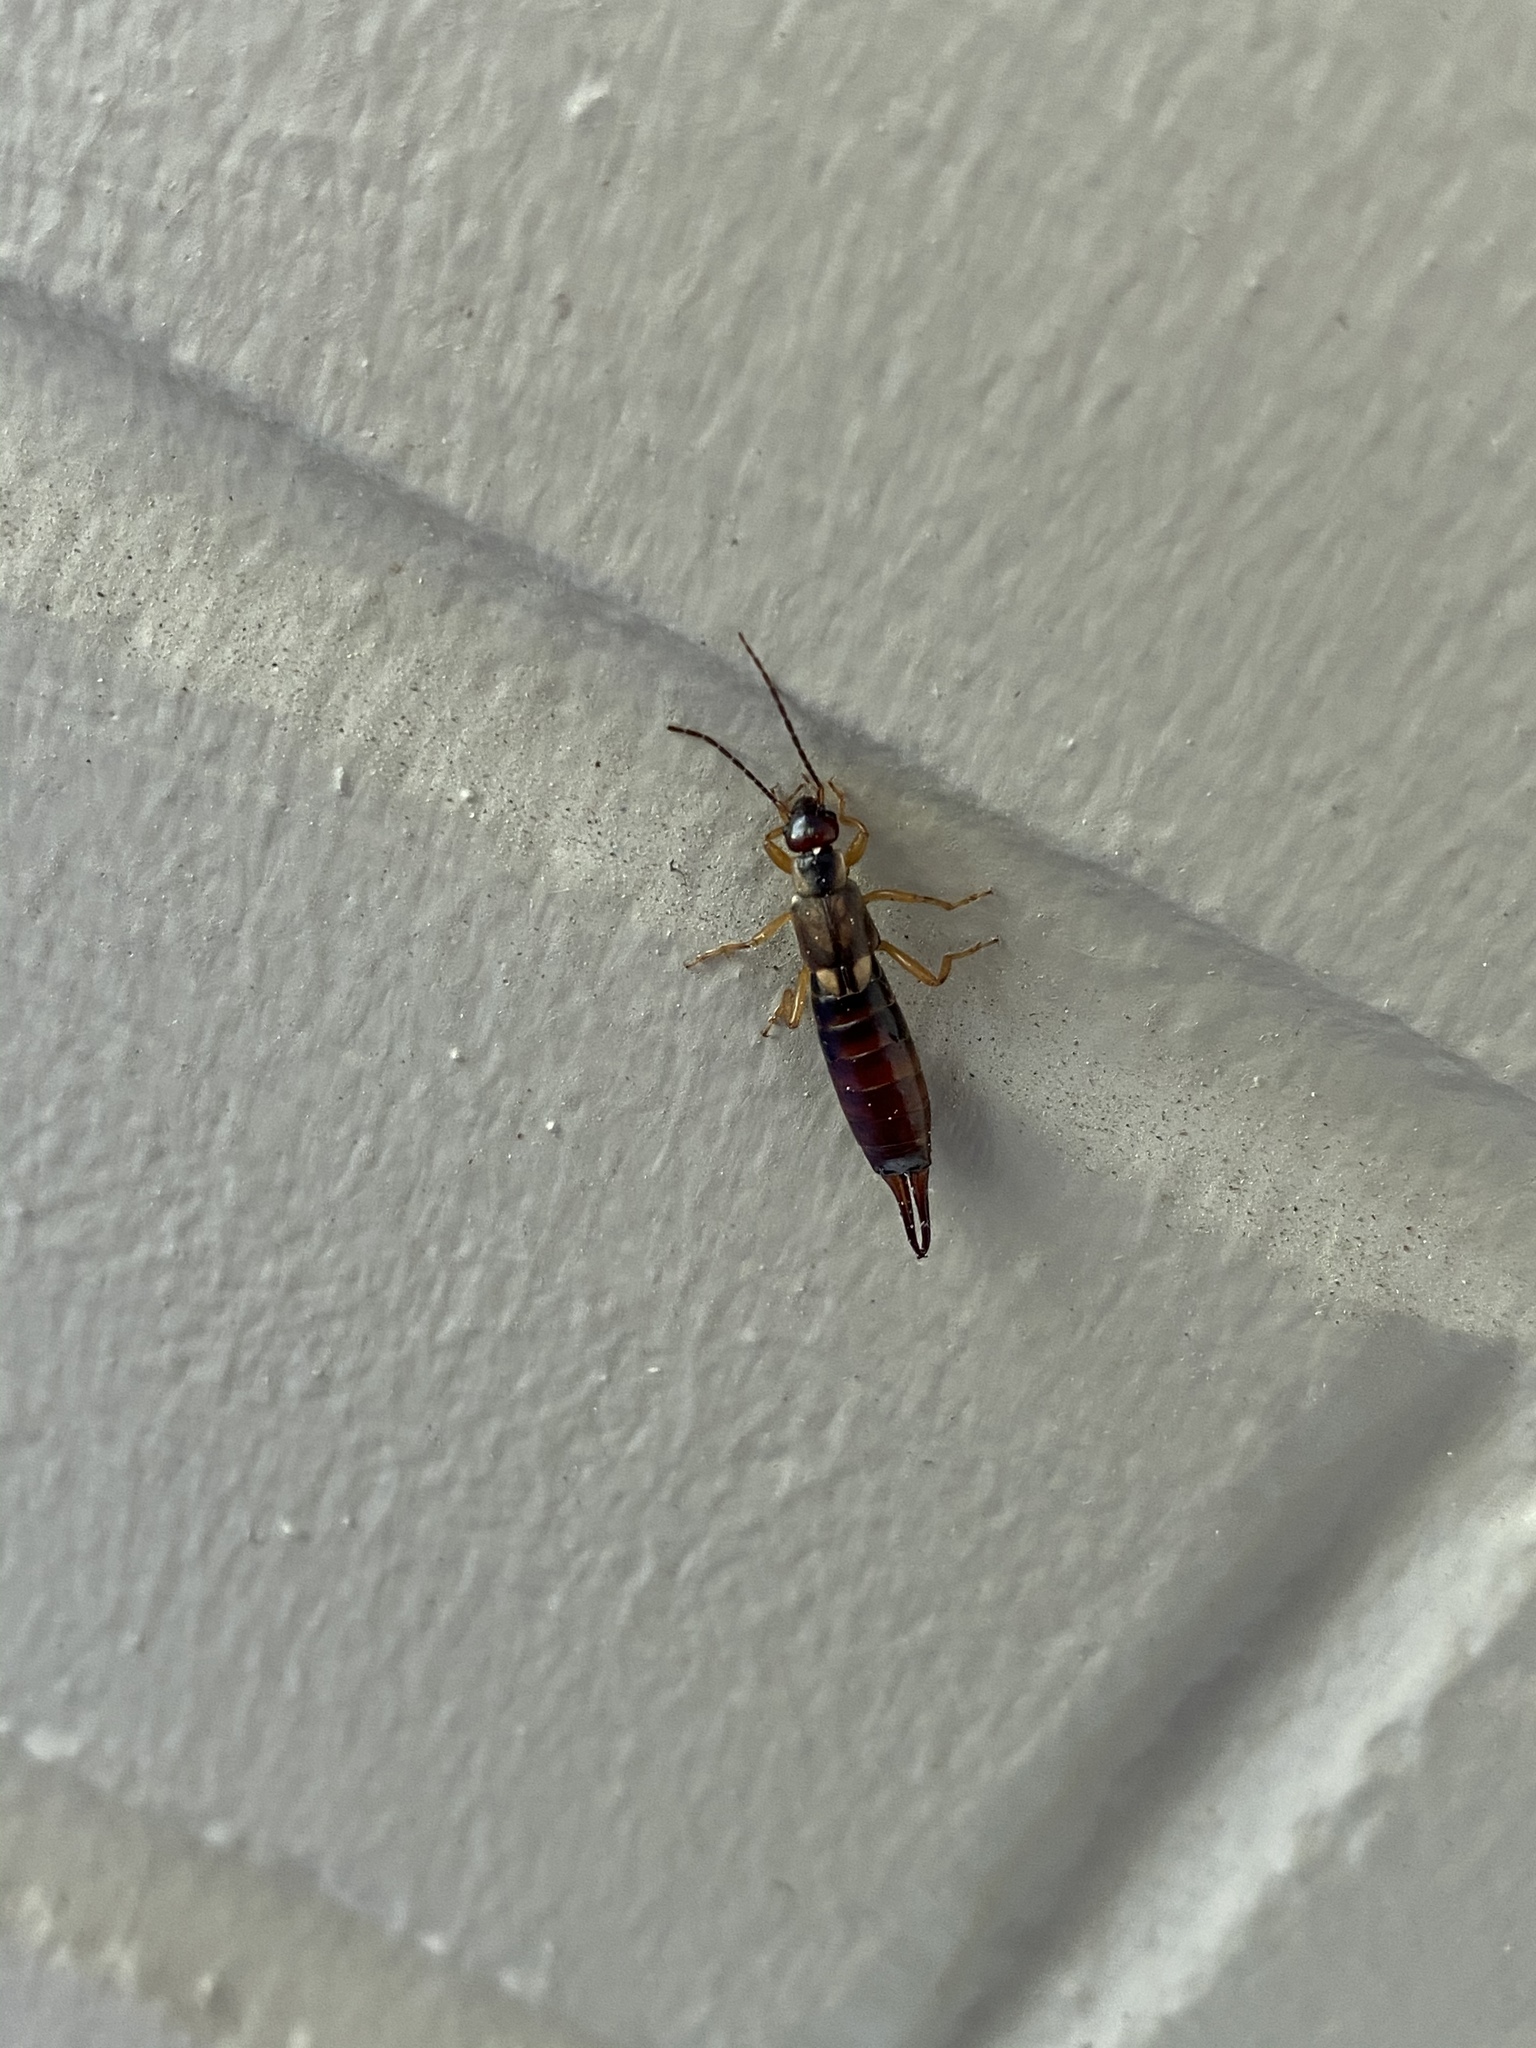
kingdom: Animalia
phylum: Arthropoda
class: Insecta
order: Dermaptera
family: Forficulidae
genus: Forficula
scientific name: Forficula
